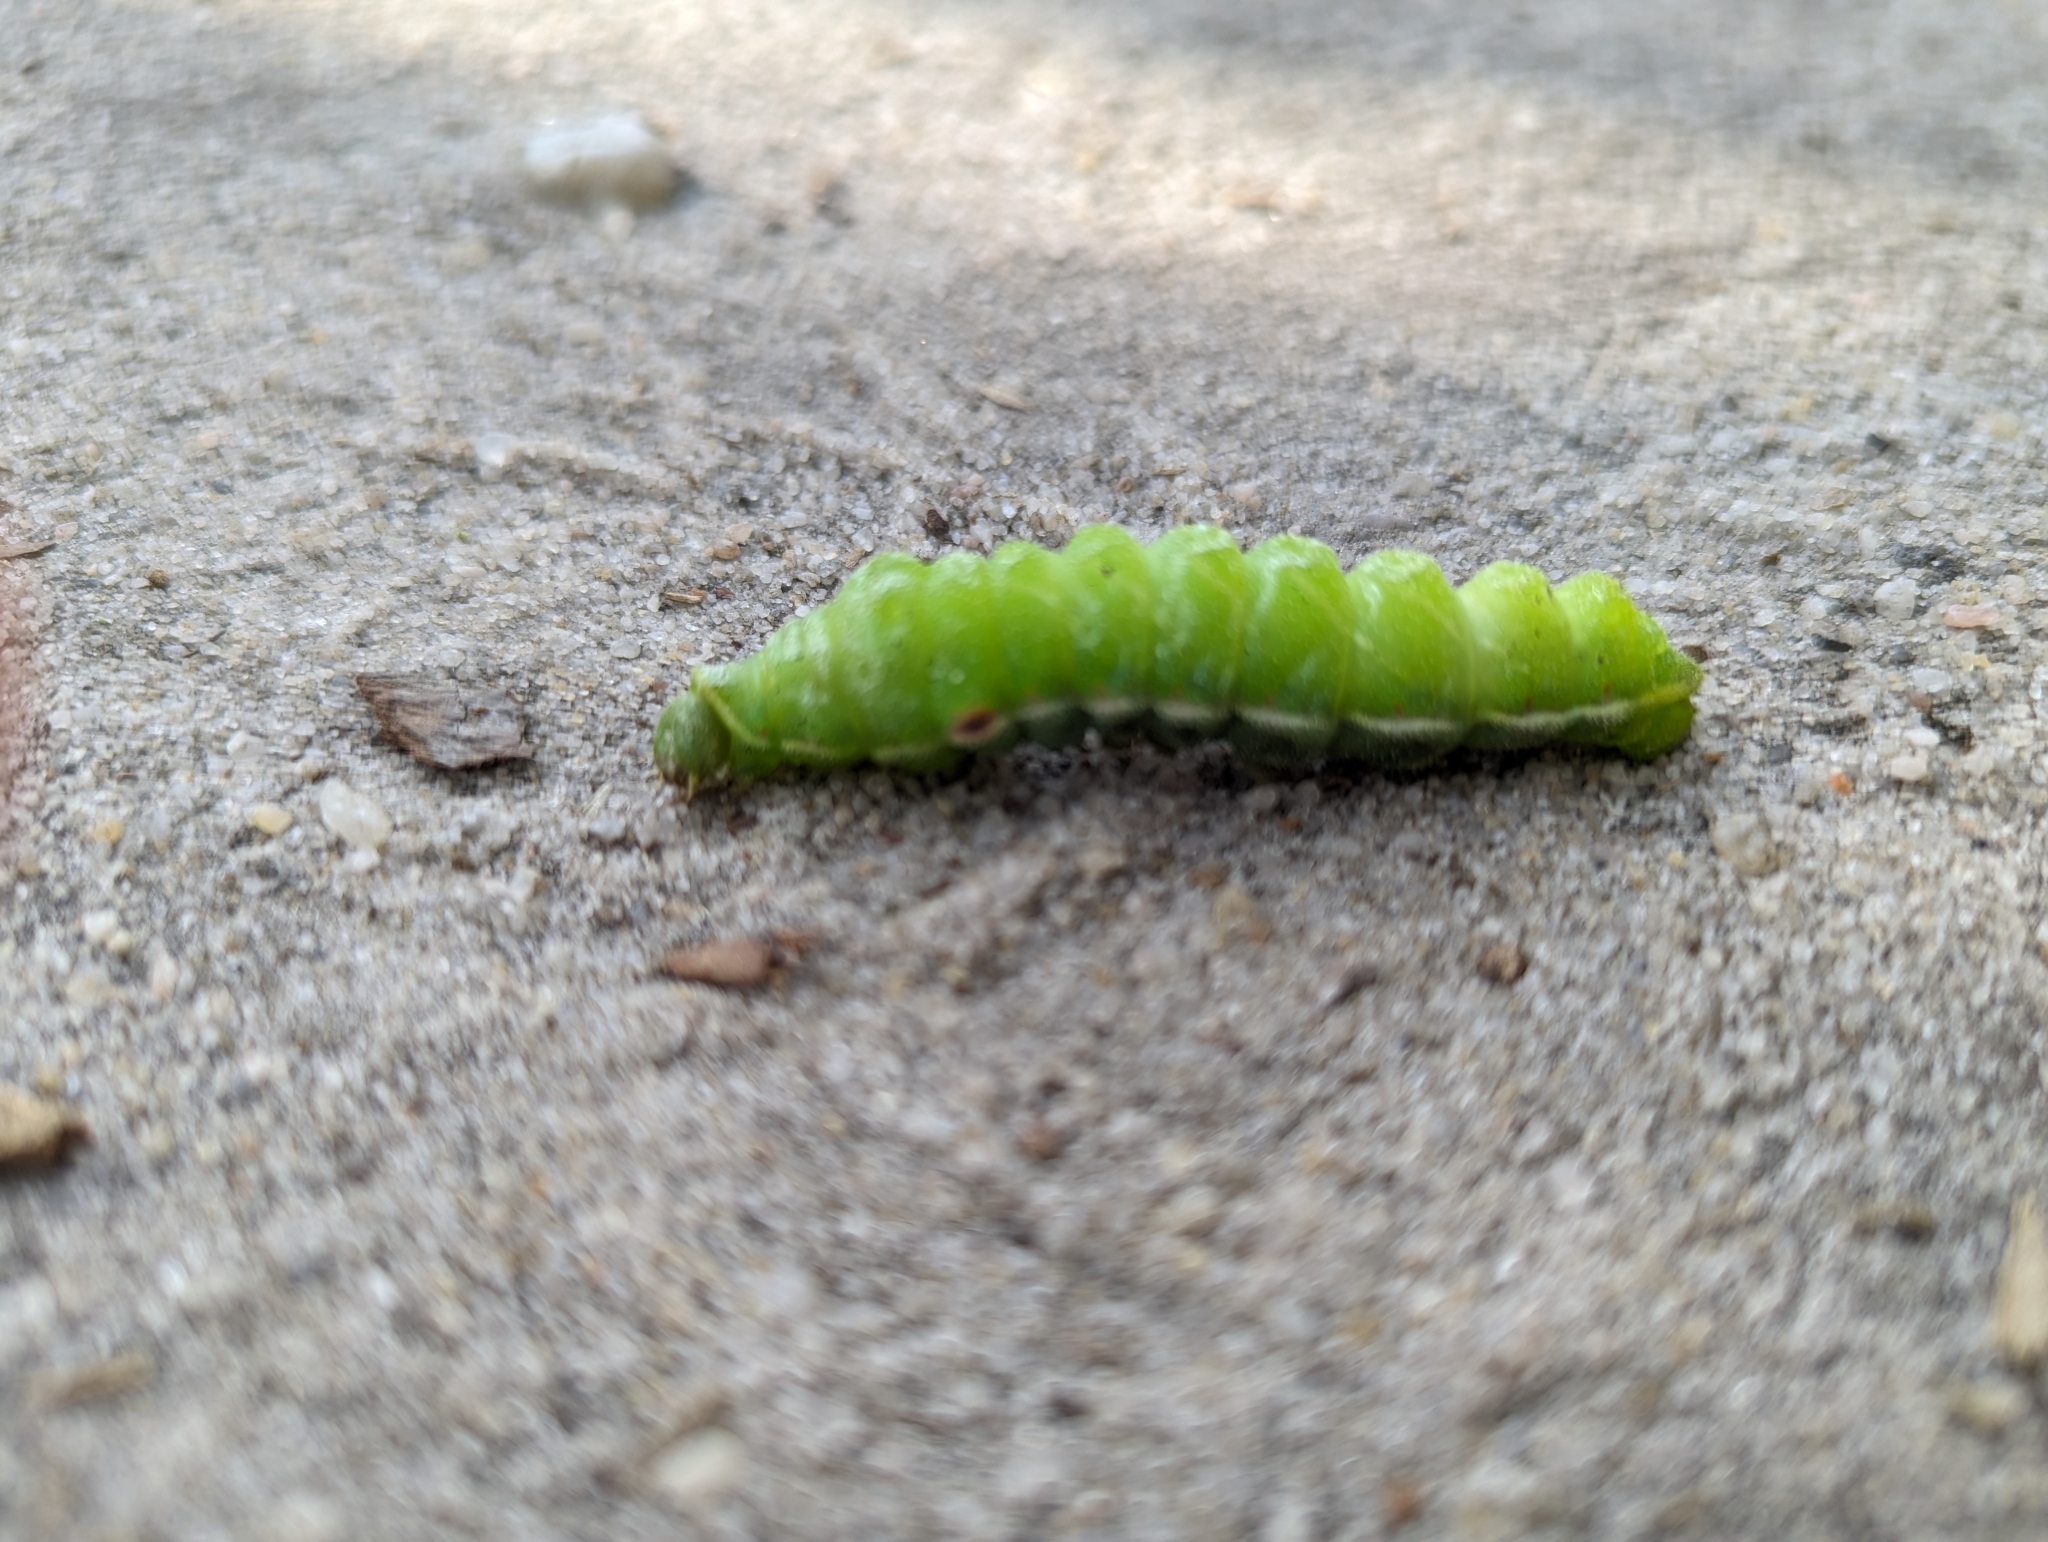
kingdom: Animalia
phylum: Arthropoda
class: Insecta
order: Lepidoptera
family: Saturniidae
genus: Aglia
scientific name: Aglia tau
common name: Tau emperor
